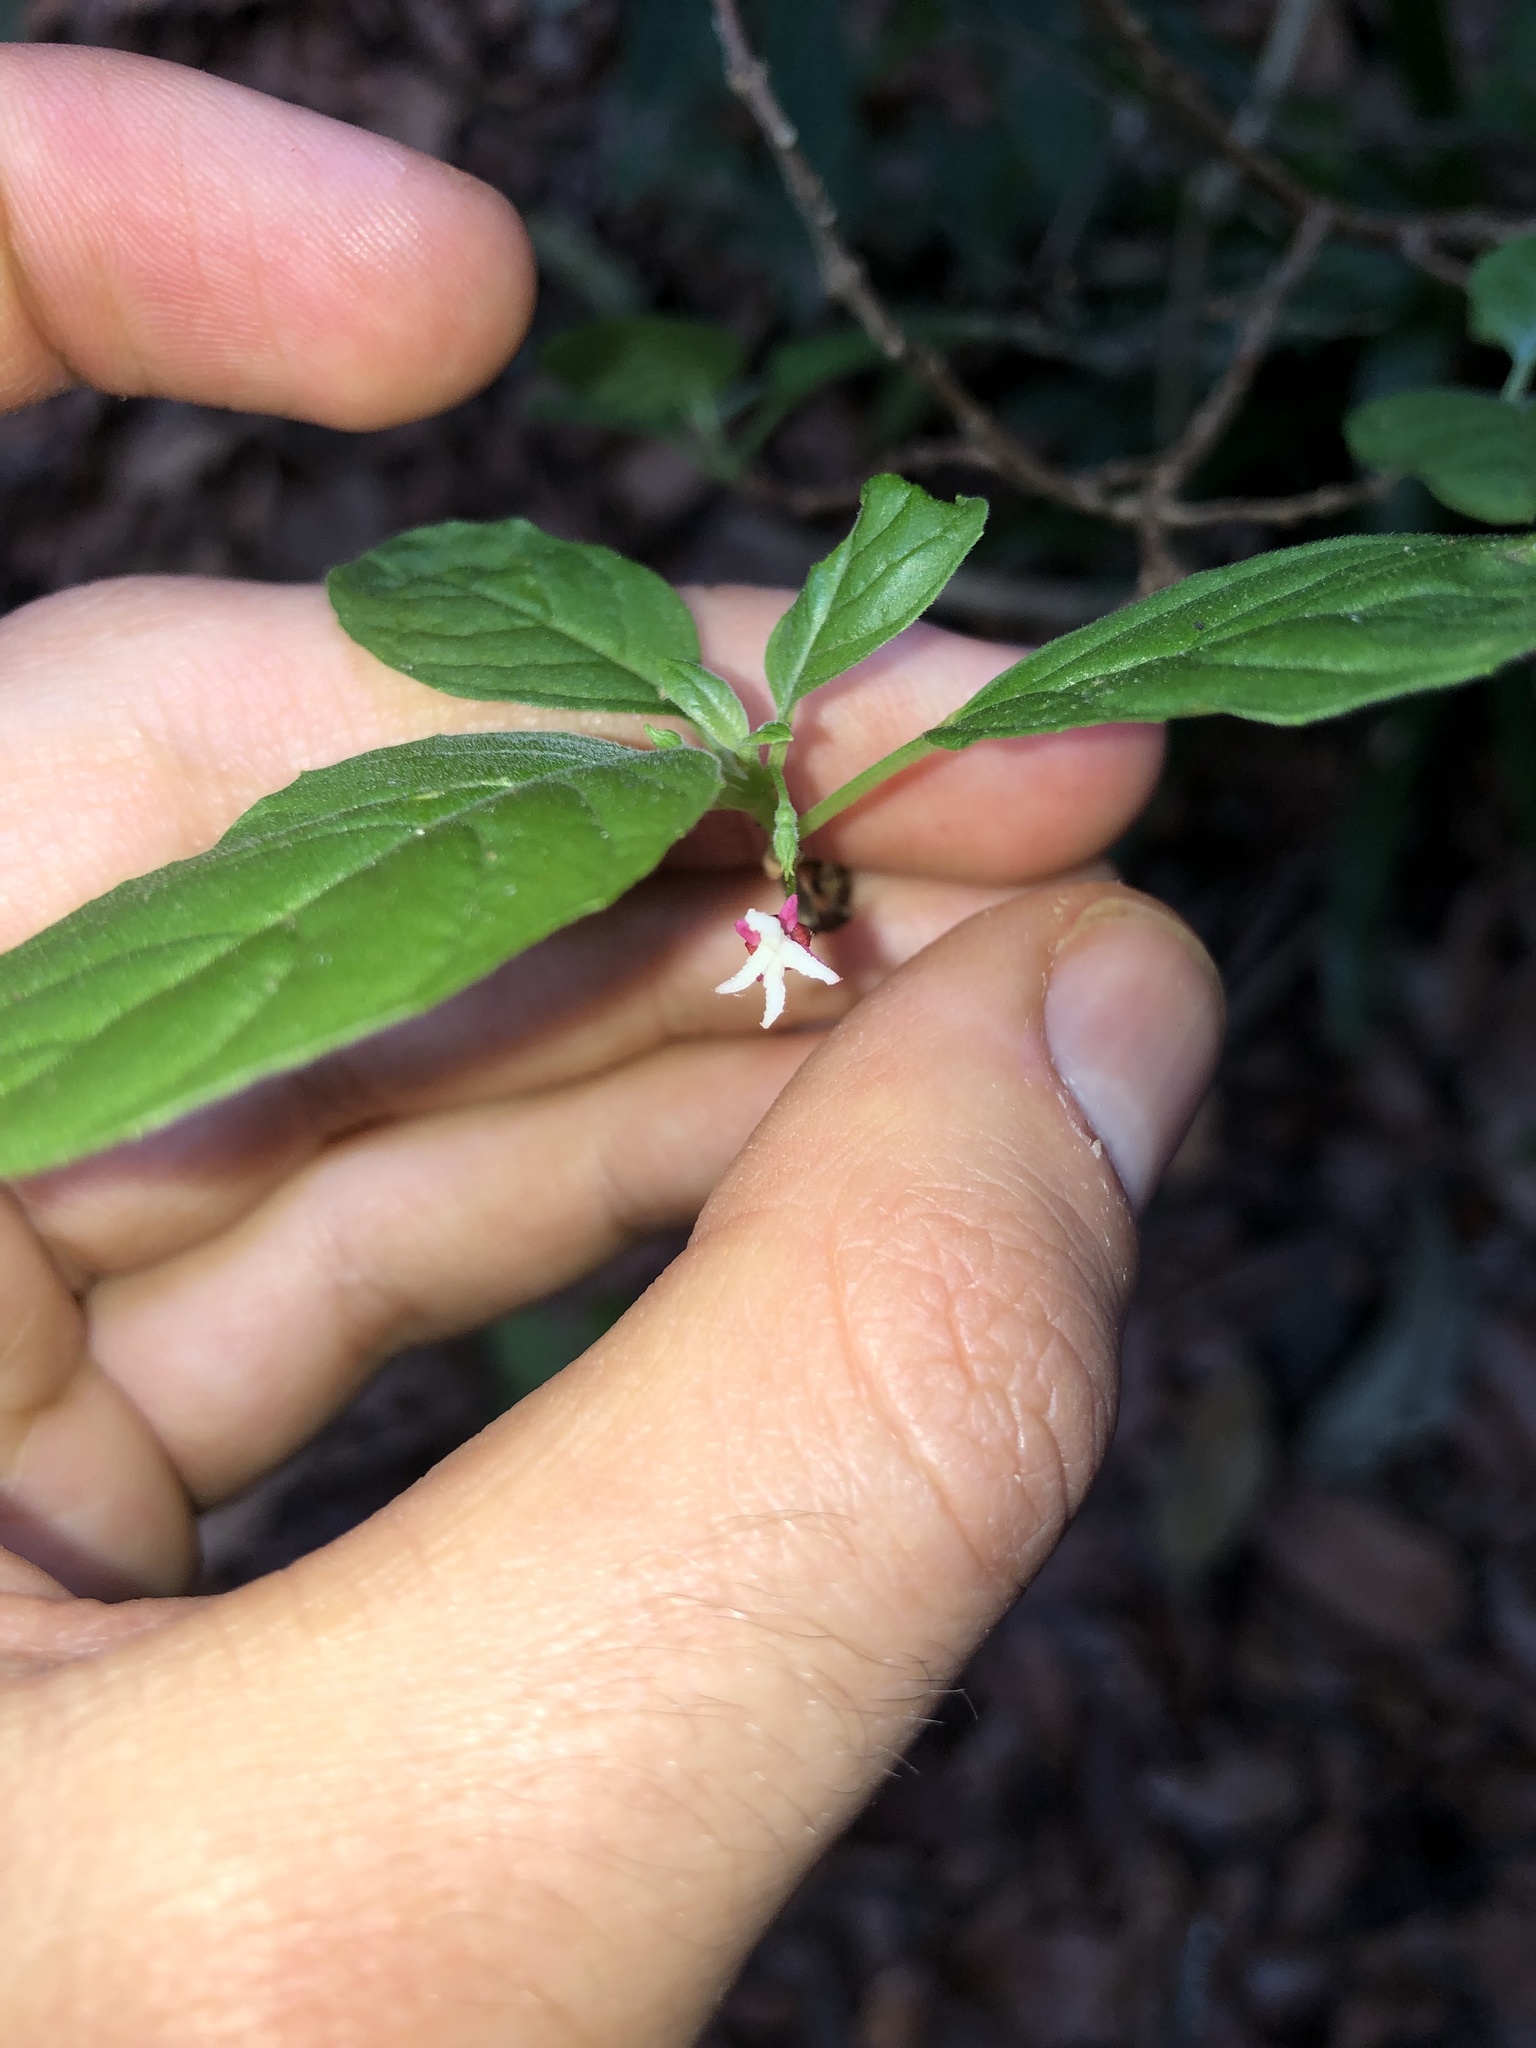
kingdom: Plantae
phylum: Tracheophyta
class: Magnoliopsida
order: Myrtales
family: Onagraceae
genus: Fuchsia
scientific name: Fuchsia encliandra
